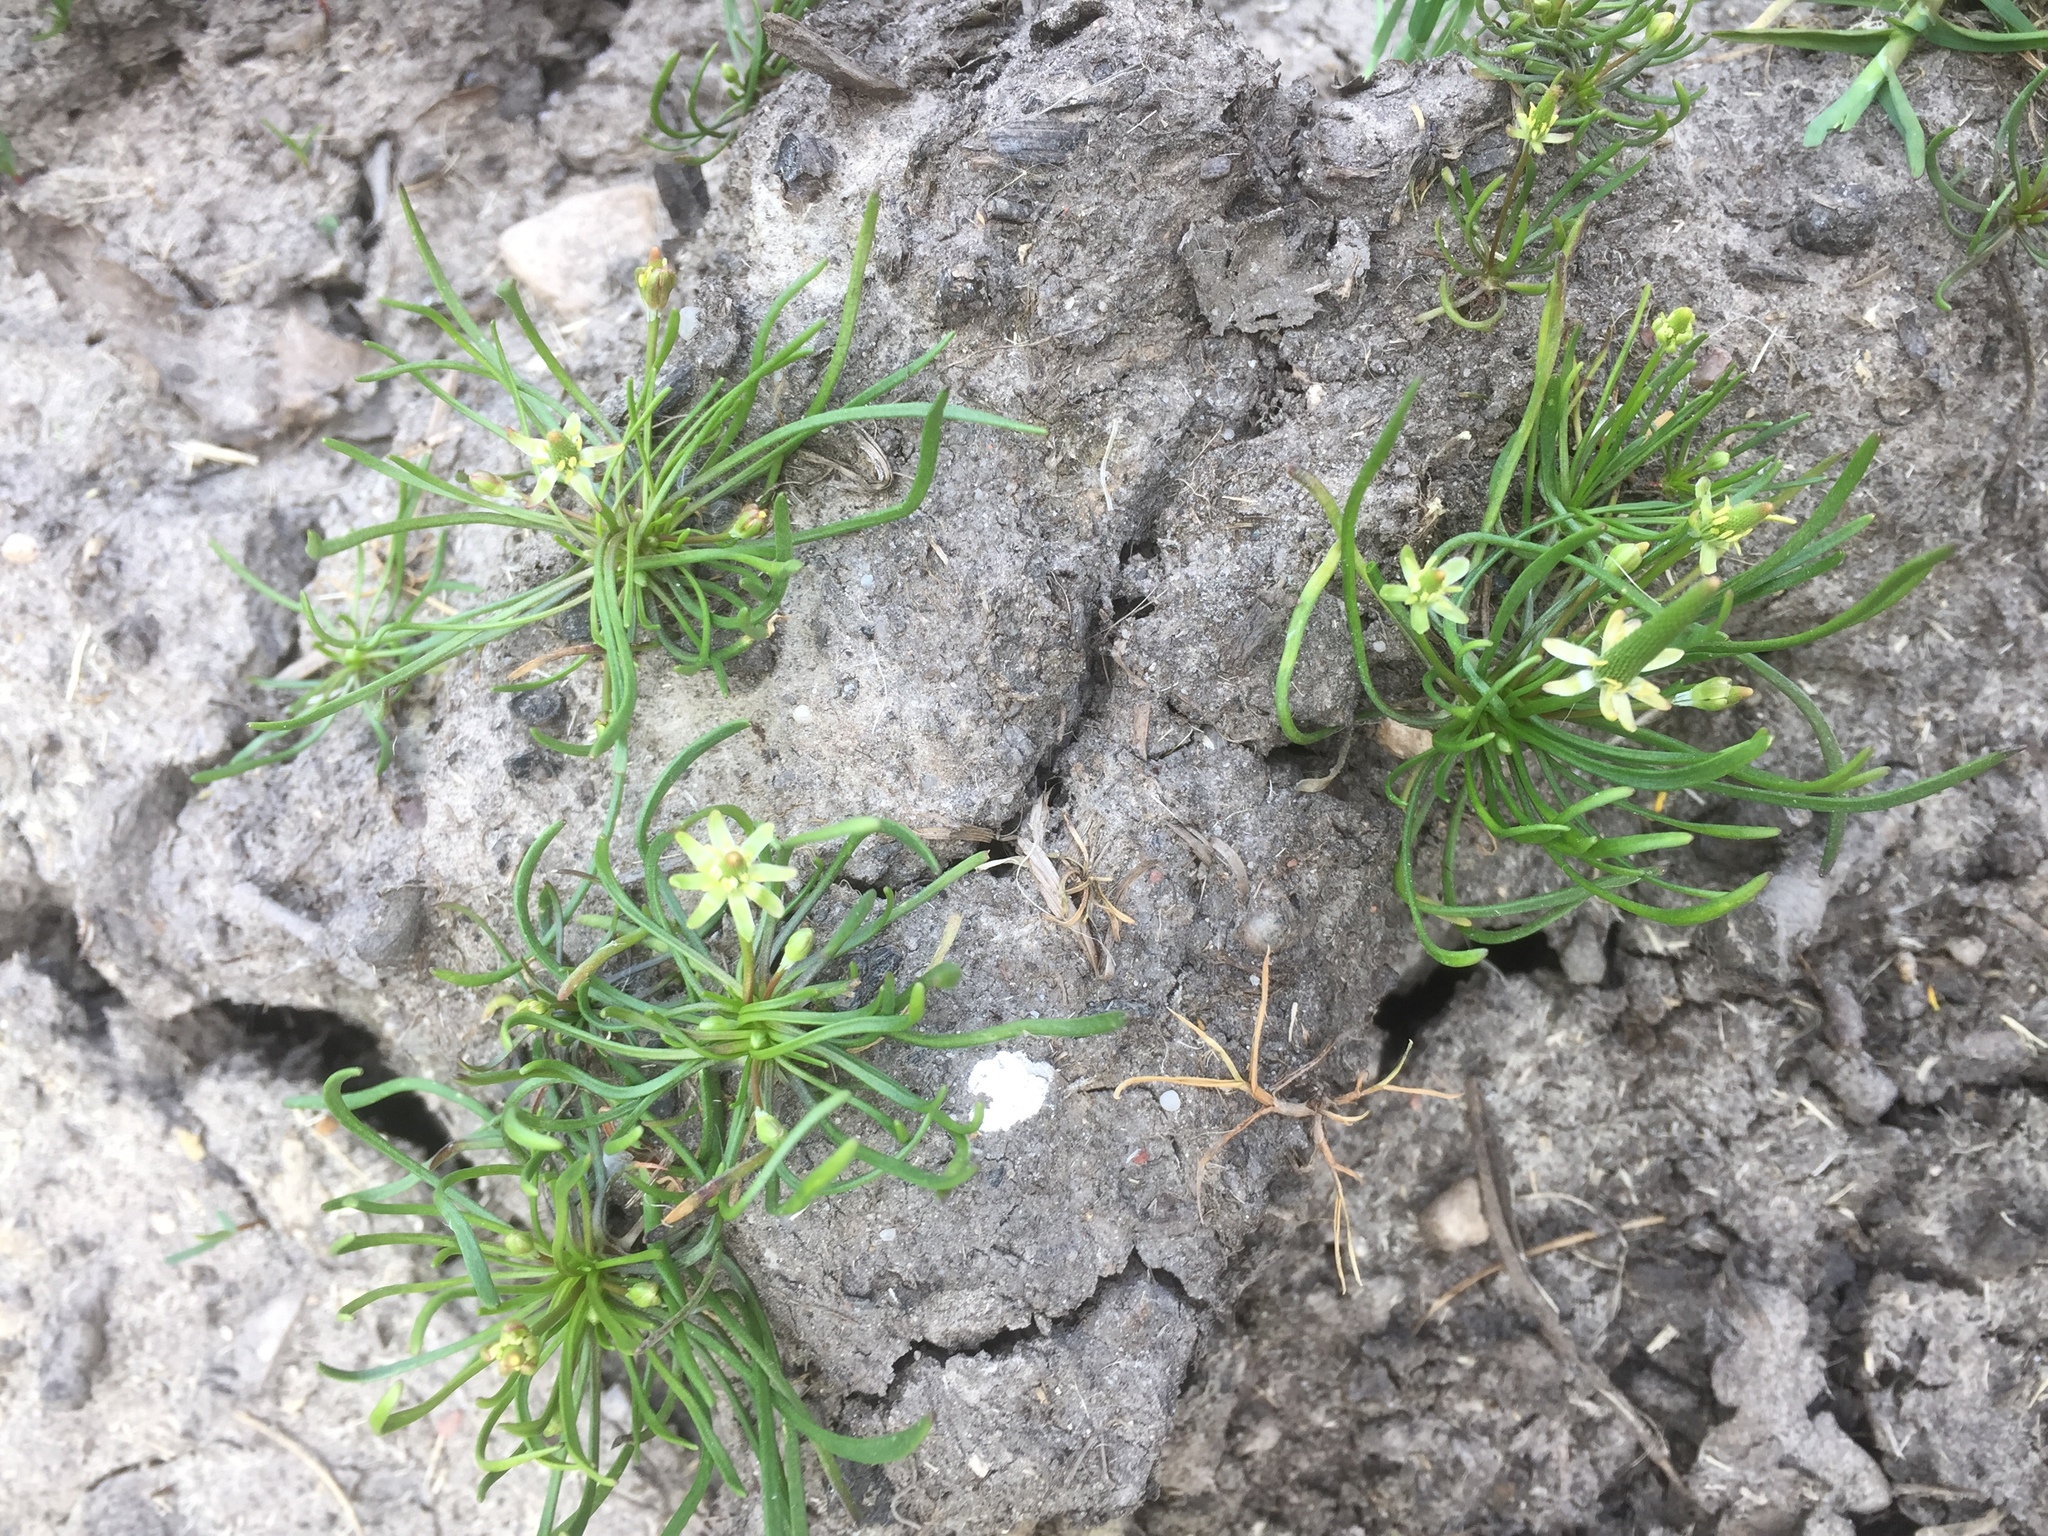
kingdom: Plantae
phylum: Tracheophyta
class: Magnoliopsida
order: Ranunculales
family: Ranunculaceae
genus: Myosurus
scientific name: Myosurus minimus
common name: Mousetail
